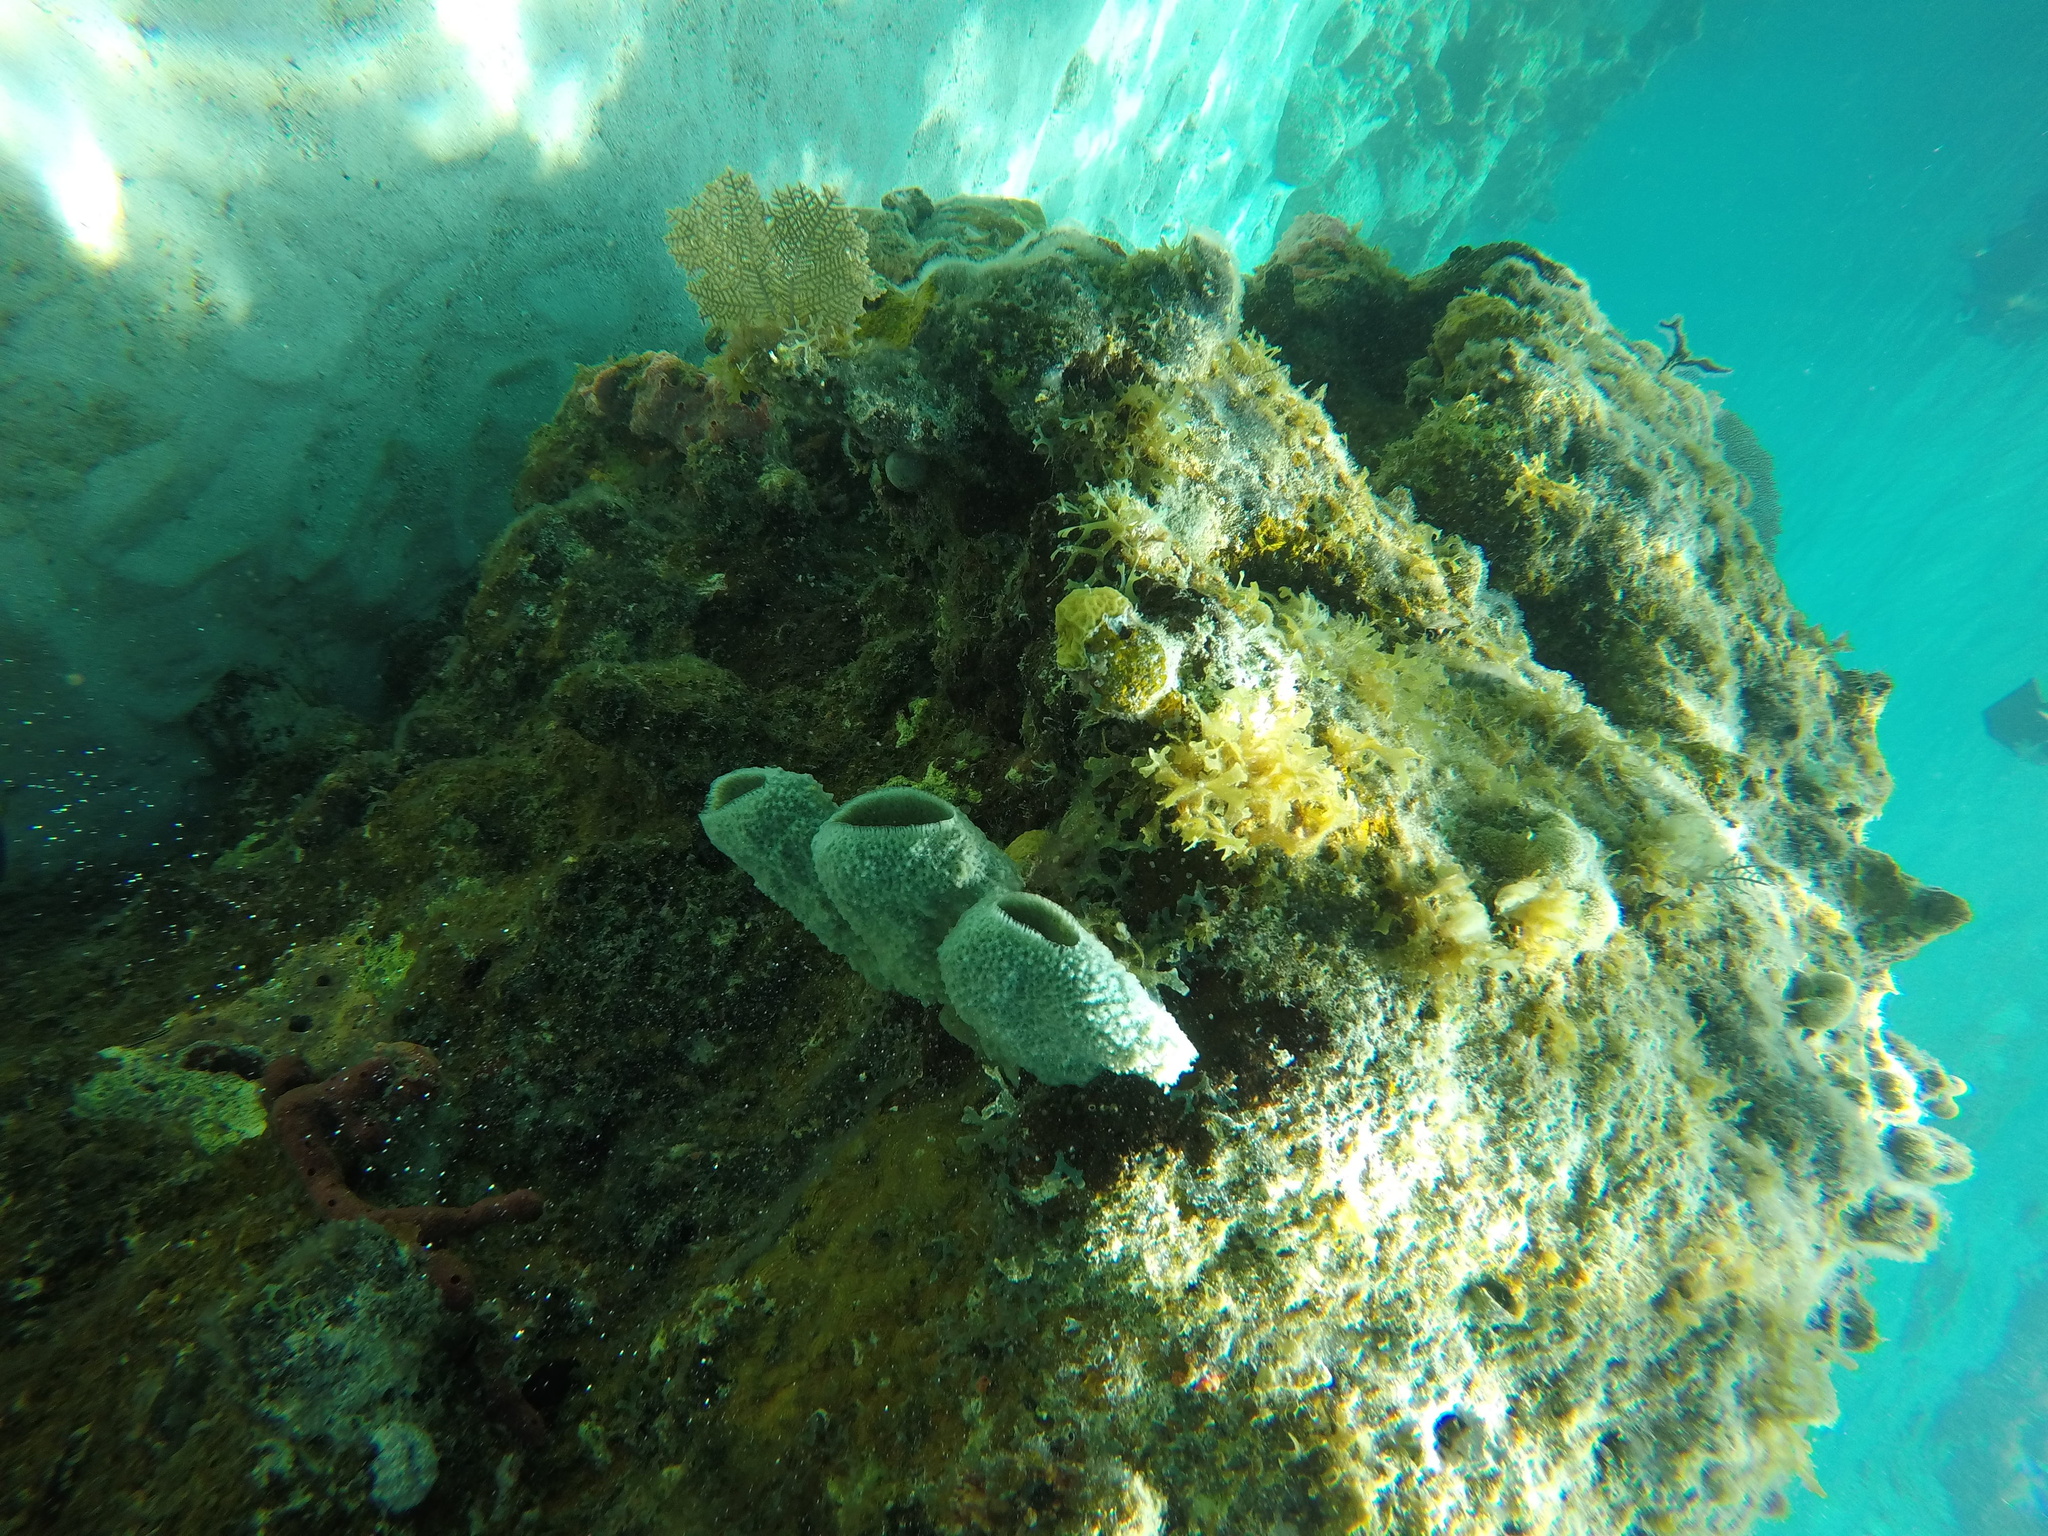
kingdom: Animalia
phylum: Porifera
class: Demospongiae
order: Haplosclerida
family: Niphatidae
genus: Niphates
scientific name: Niphates digitalis
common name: Pink vase sponge
